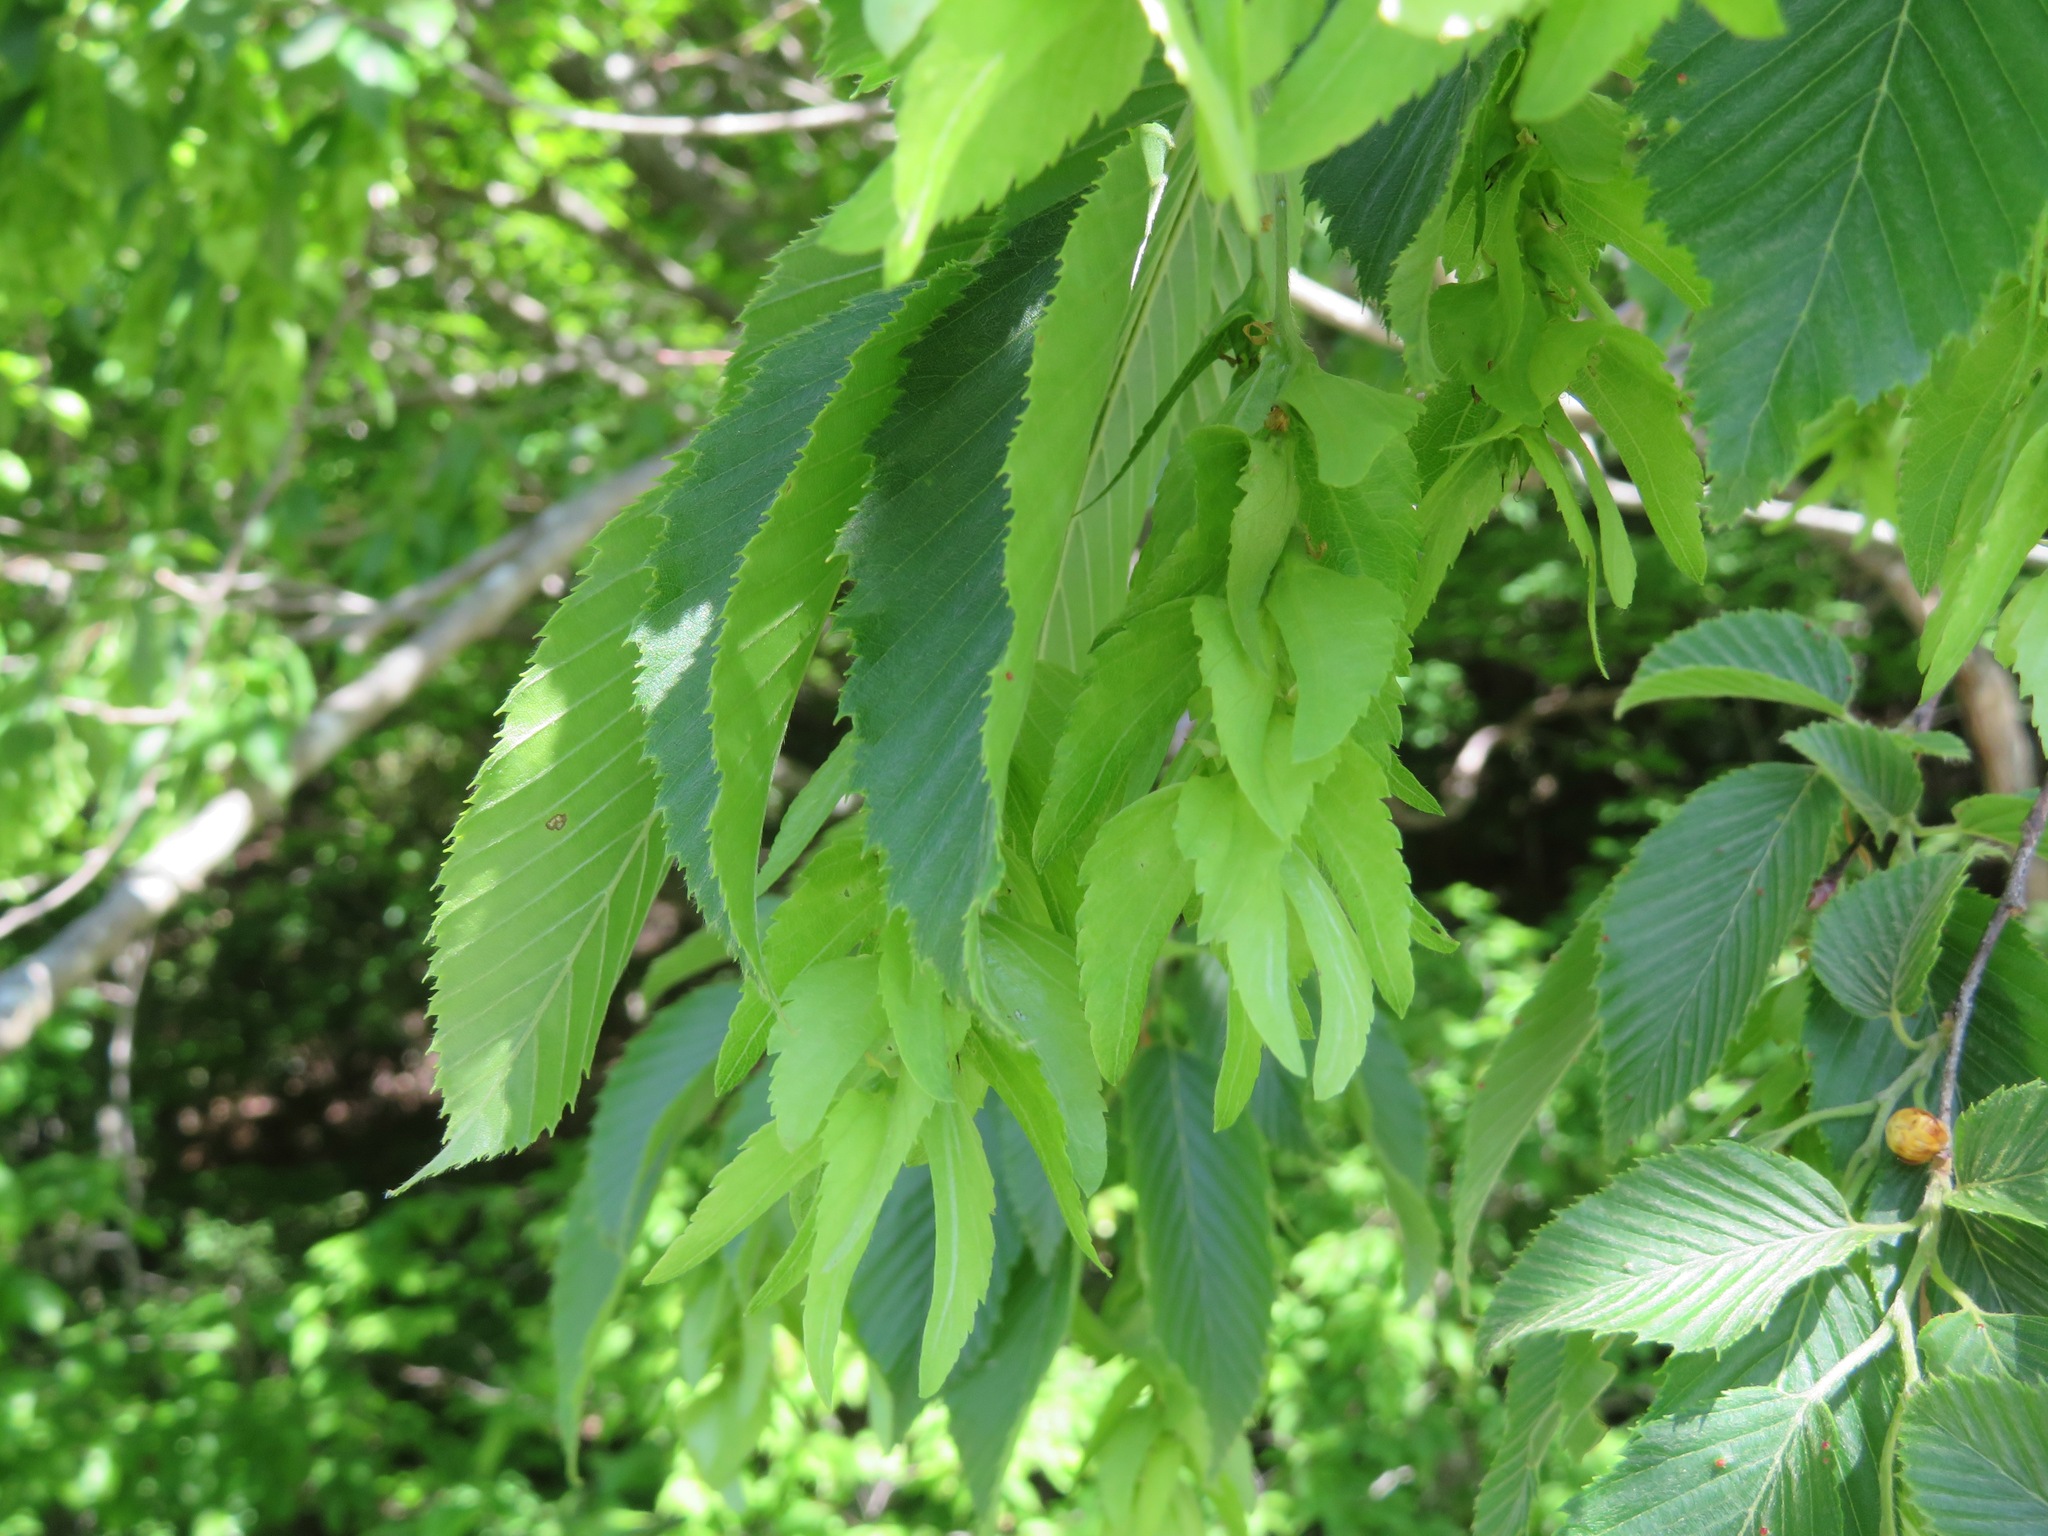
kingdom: Plantae
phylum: Tracheophyta
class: Magnoliopsida
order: Fagales
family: Betulaceae
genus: Carpinus
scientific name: Carpinus tschonoskii
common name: Asian hornbeam
